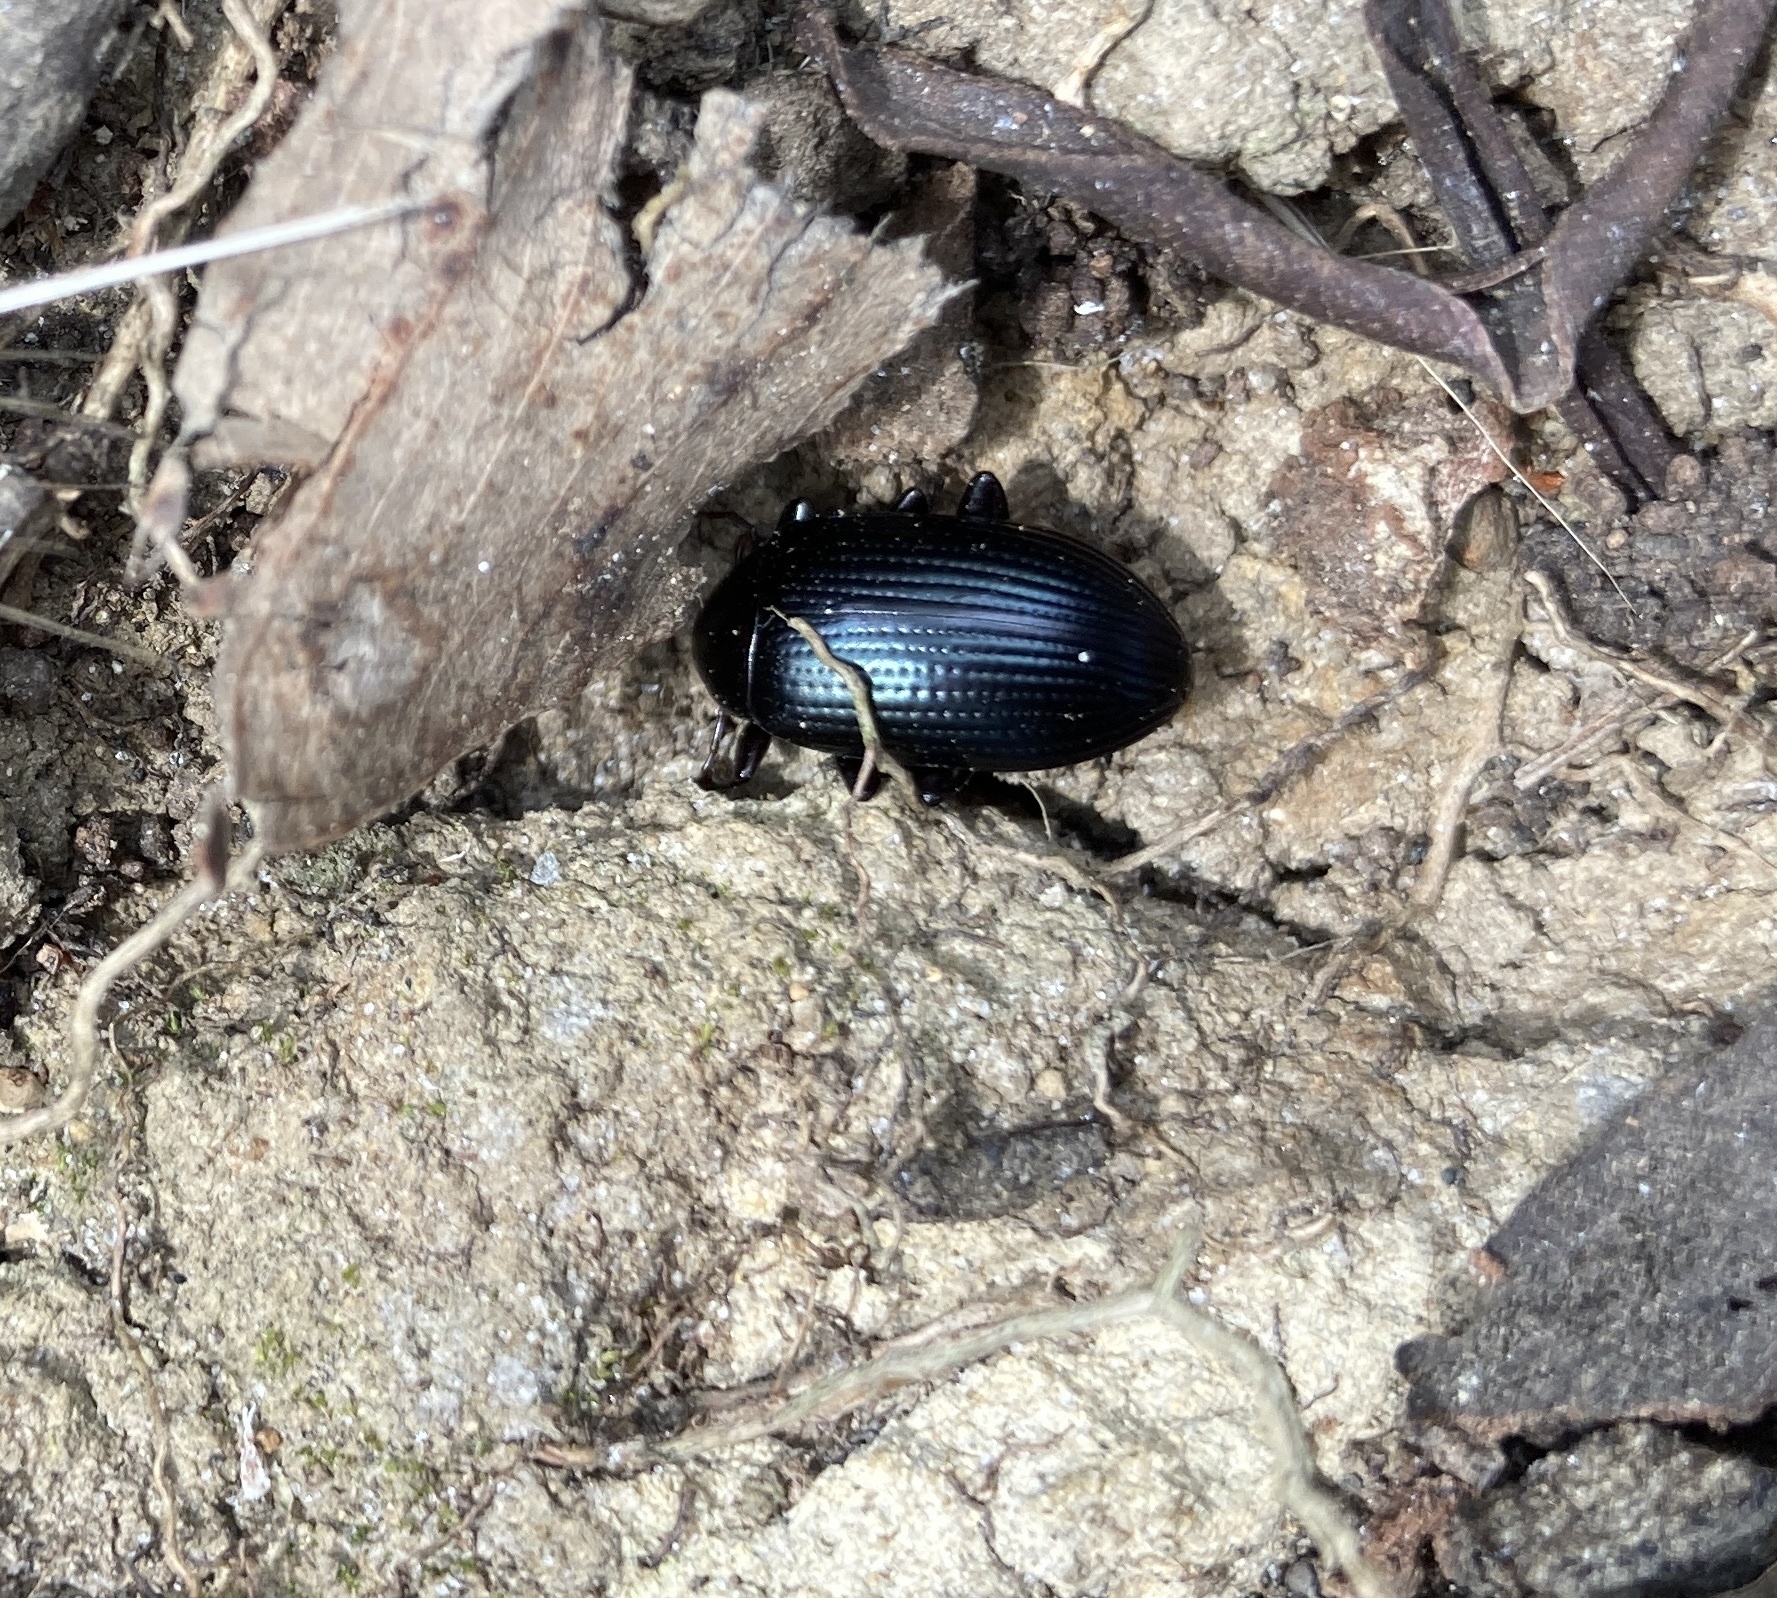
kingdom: Animalia
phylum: Arthropoda
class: Insecta
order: Coleoptera
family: Tenebrionidae
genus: Amarygmus
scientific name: Amarygmus
